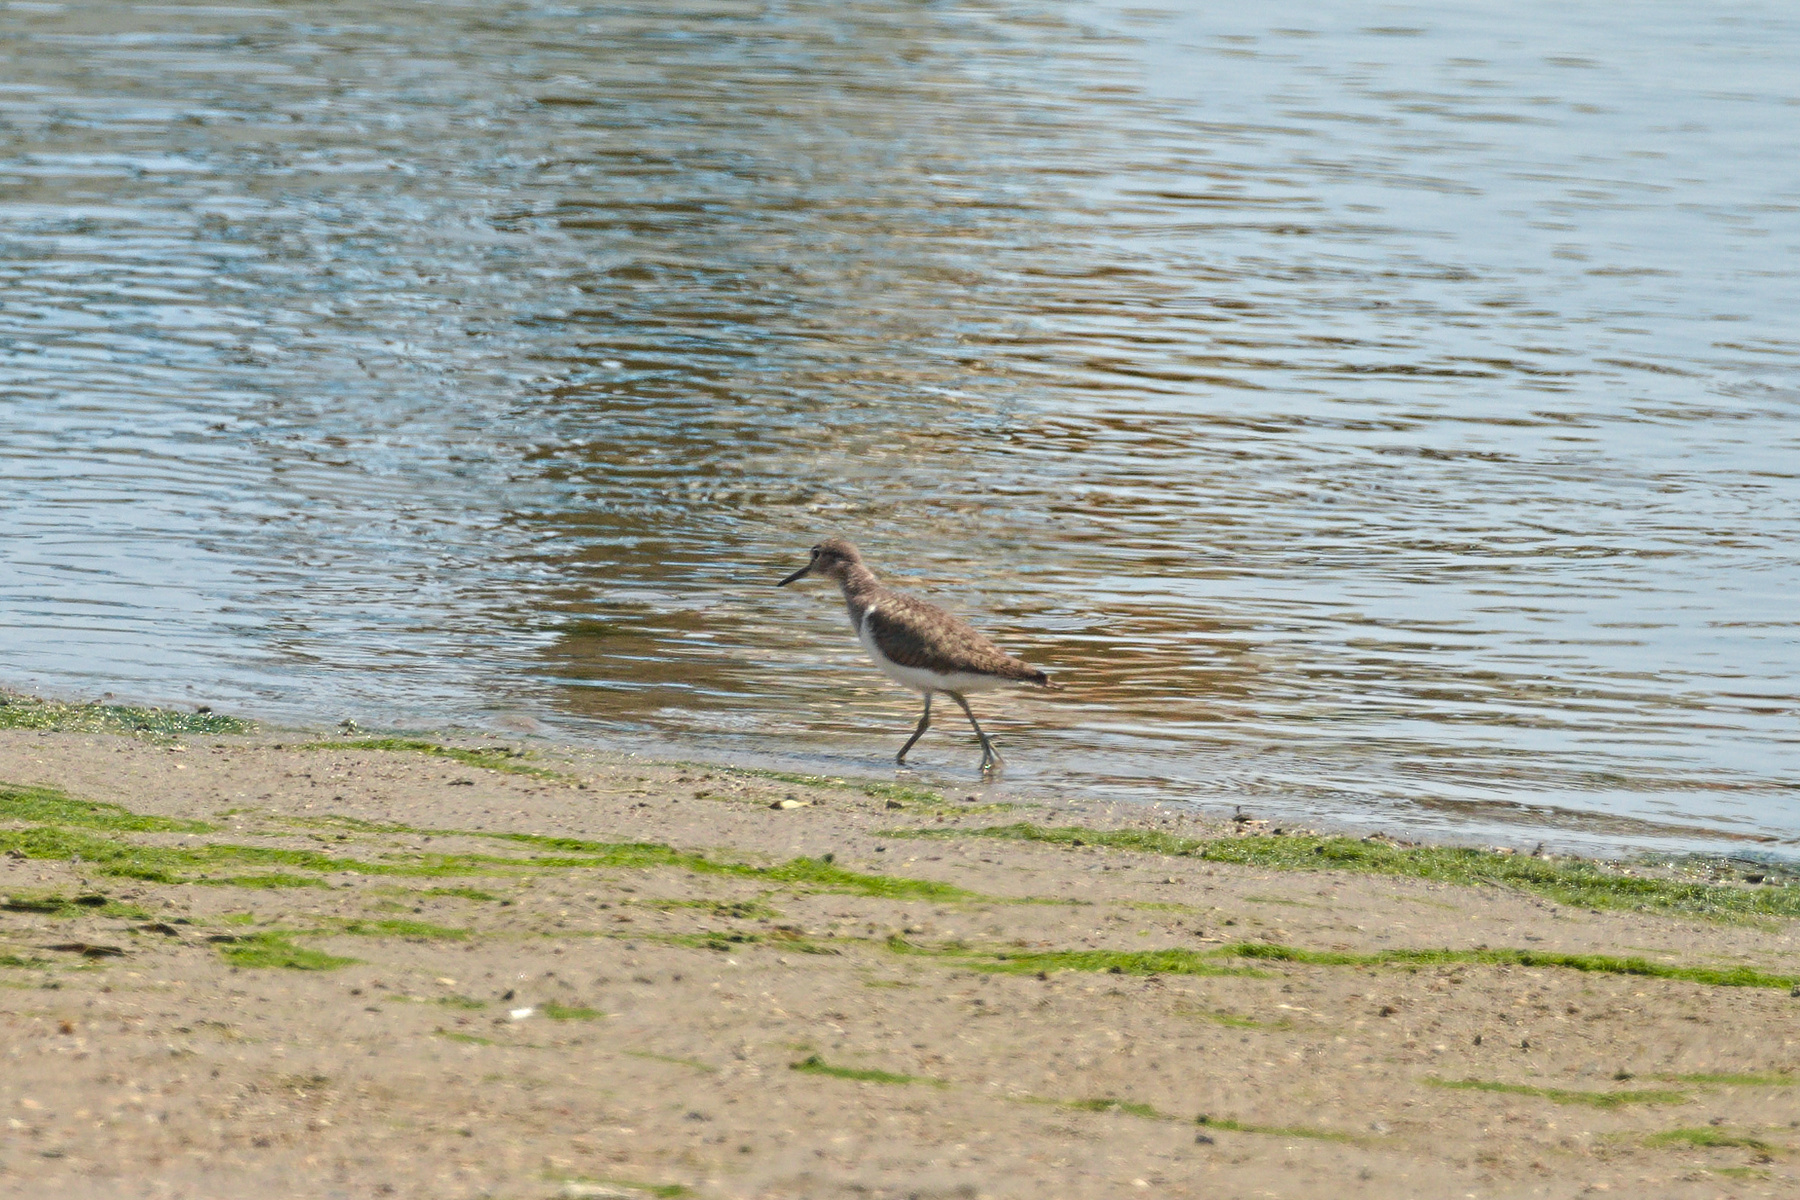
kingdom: Animalia
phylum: Chordata
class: Aves
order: Charadriiformes
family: Scolopacidae
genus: Tringa
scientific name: Tringa glareola
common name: Wood sandpiper
